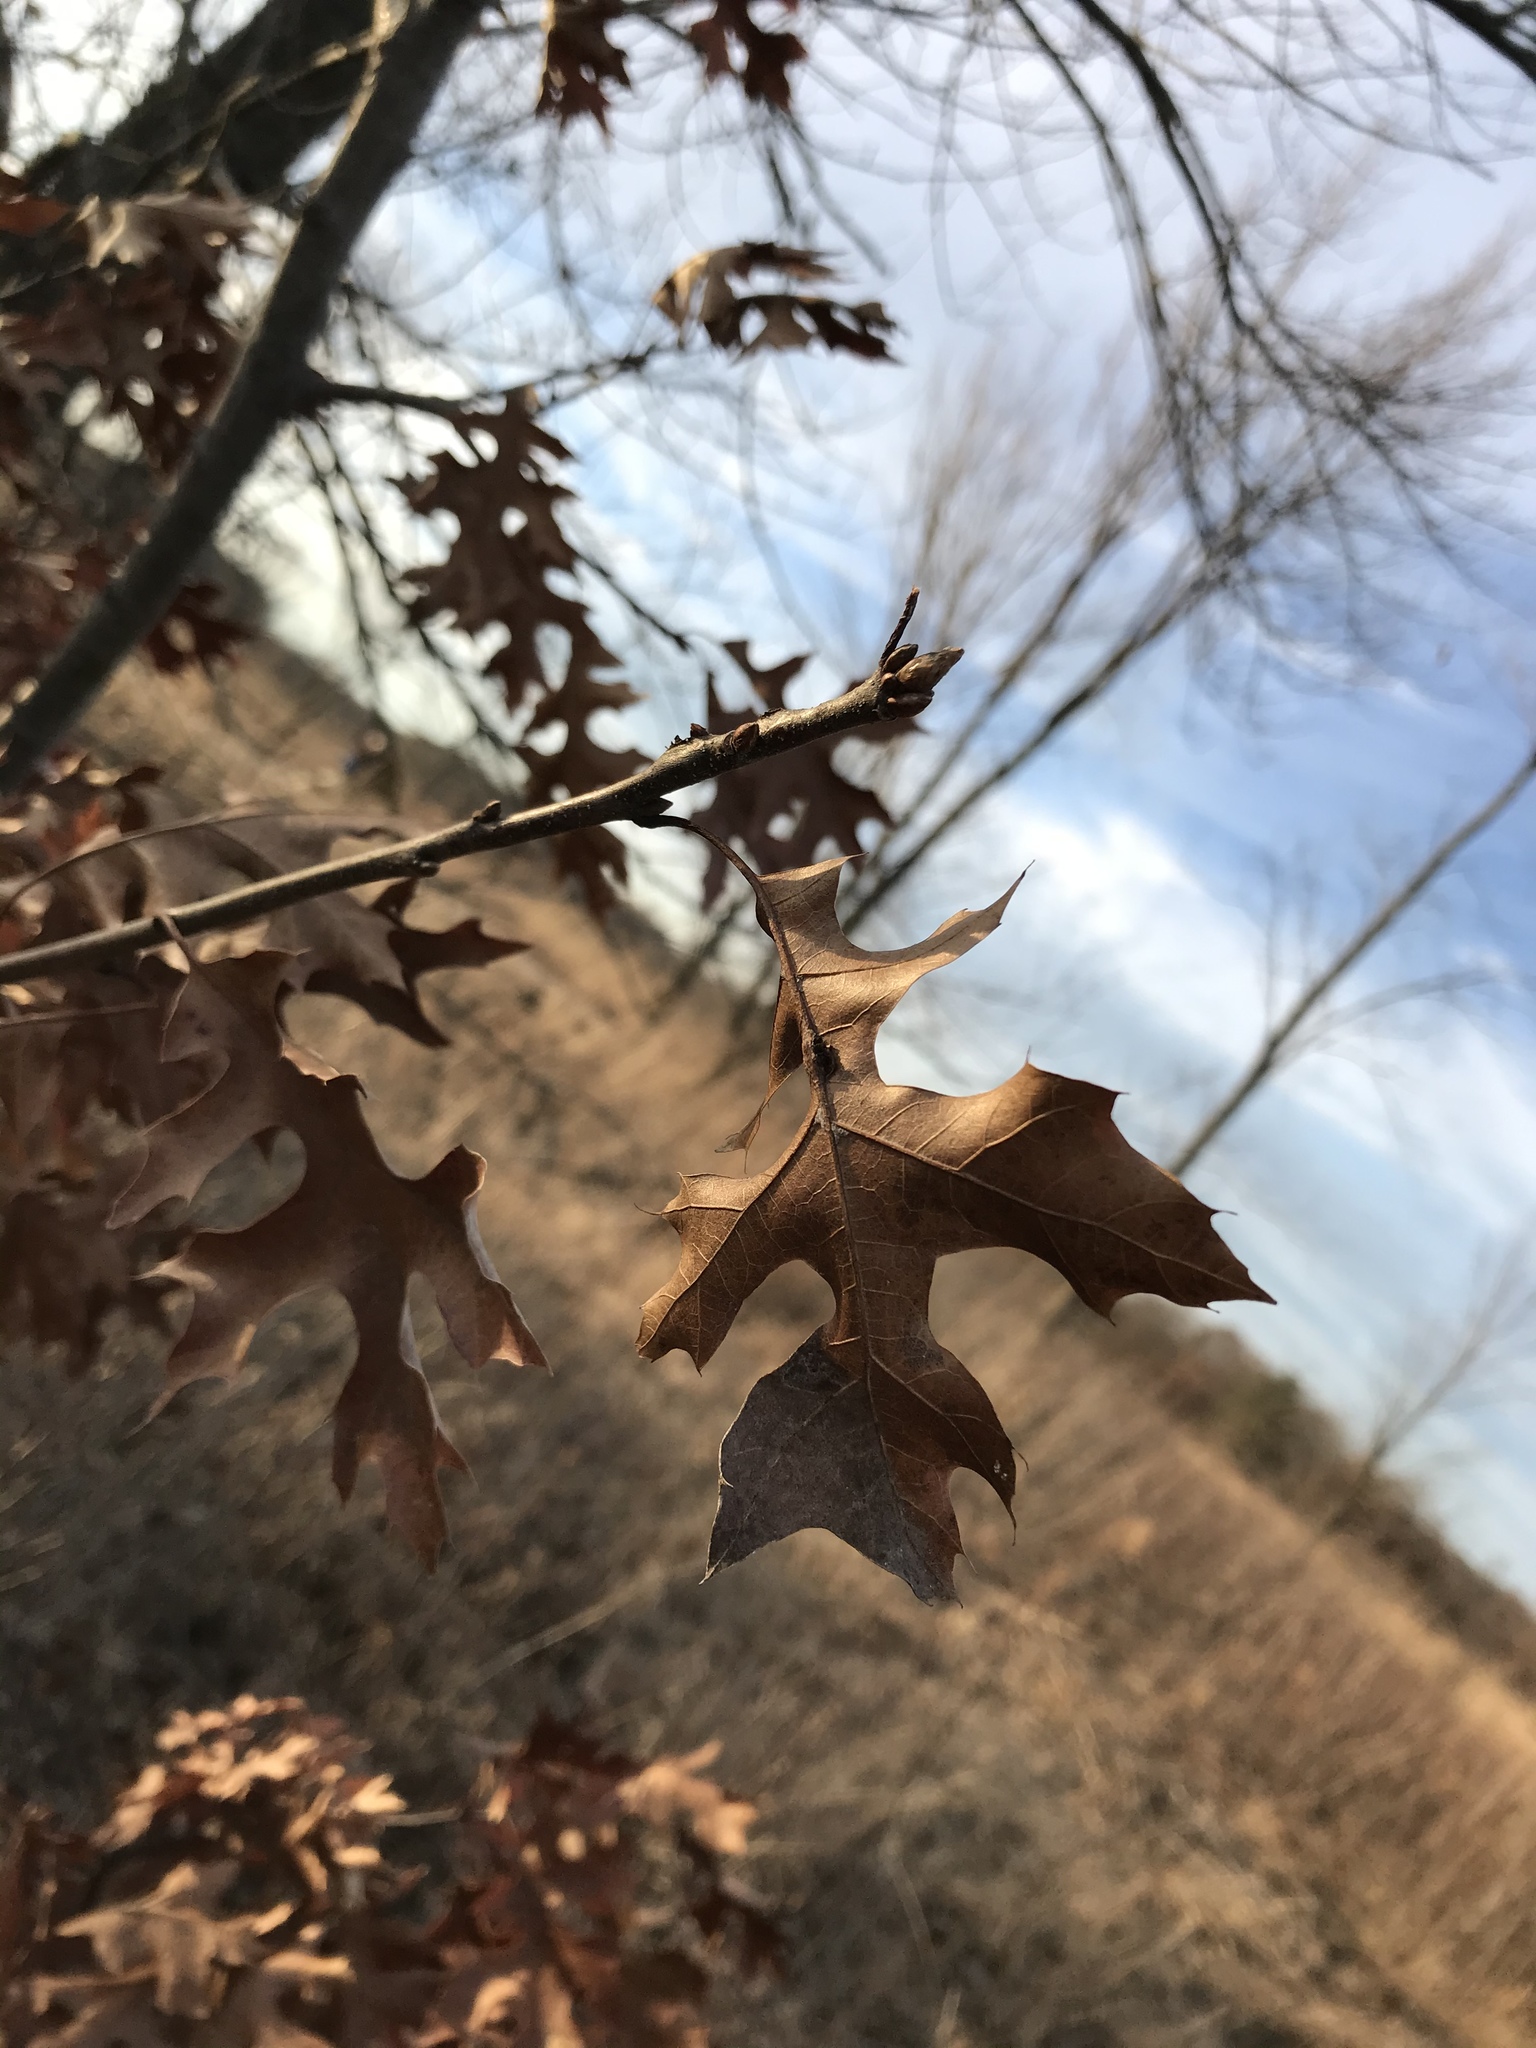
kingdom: Plantae
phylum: Tracheophyta
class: Magnoliopsida
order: Fagales
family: Fagaceae
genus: Quercus
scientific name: Quercus ellipsoidalis
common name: Hill's oak
